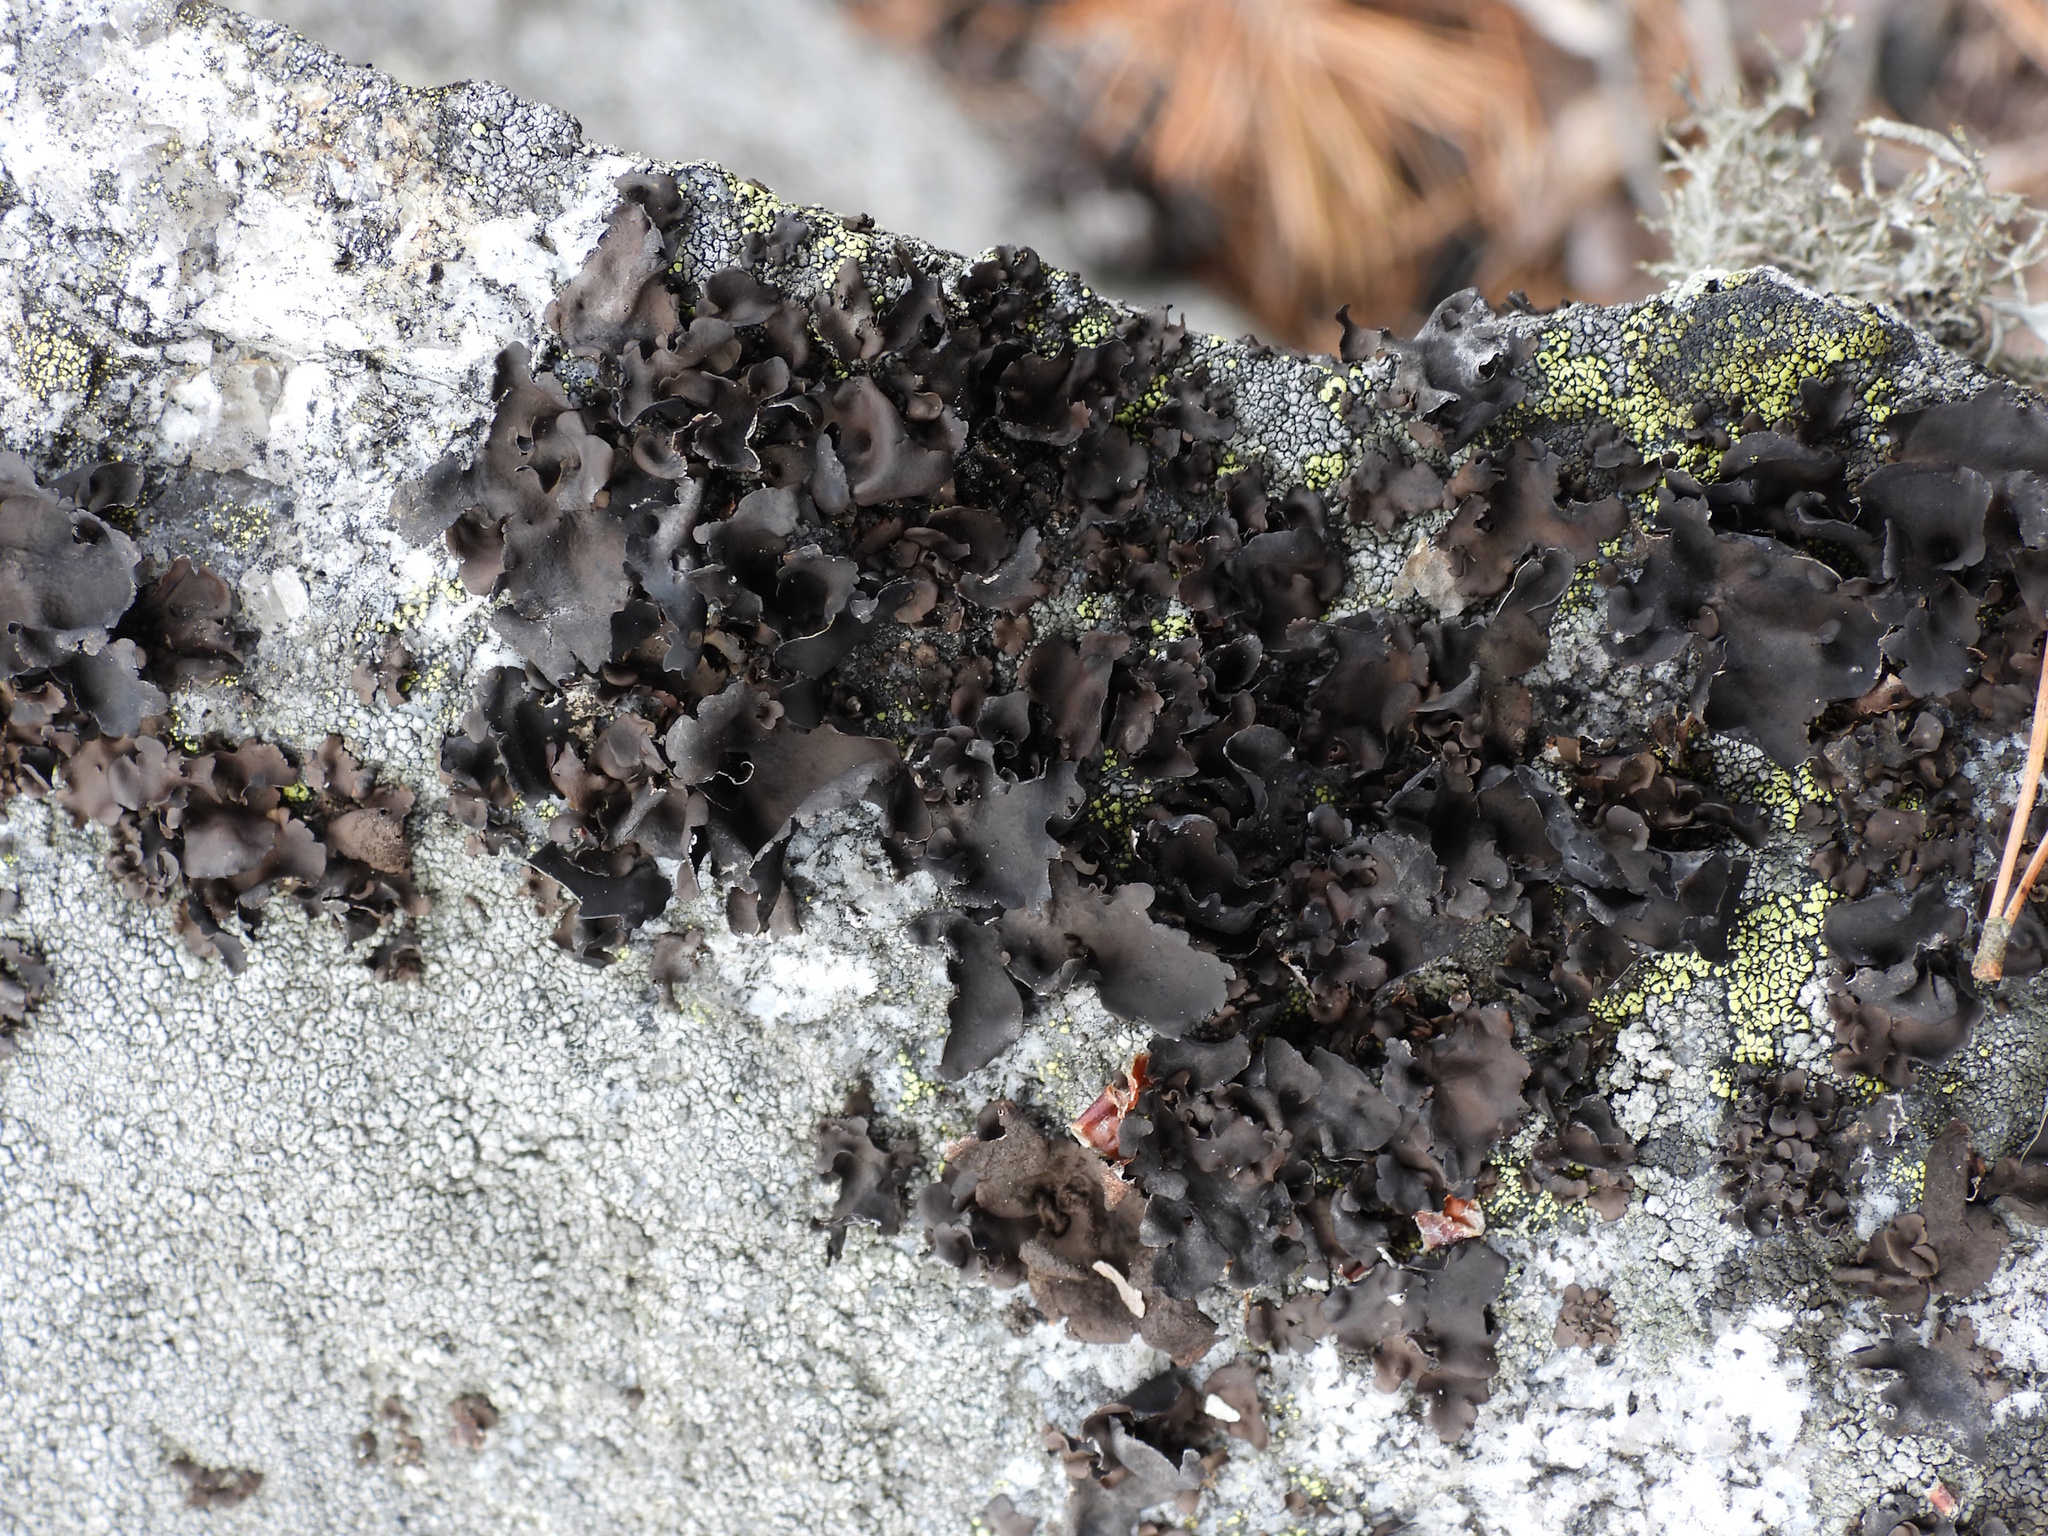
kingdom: Fungi
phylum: Ascomycota
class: Lecanoromycetes
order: Umbilicariales
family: Umbilicariaceae
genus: Umbilicaria
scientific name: Umbilicaria polyphylla
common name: Petalled rocktripe lichen
